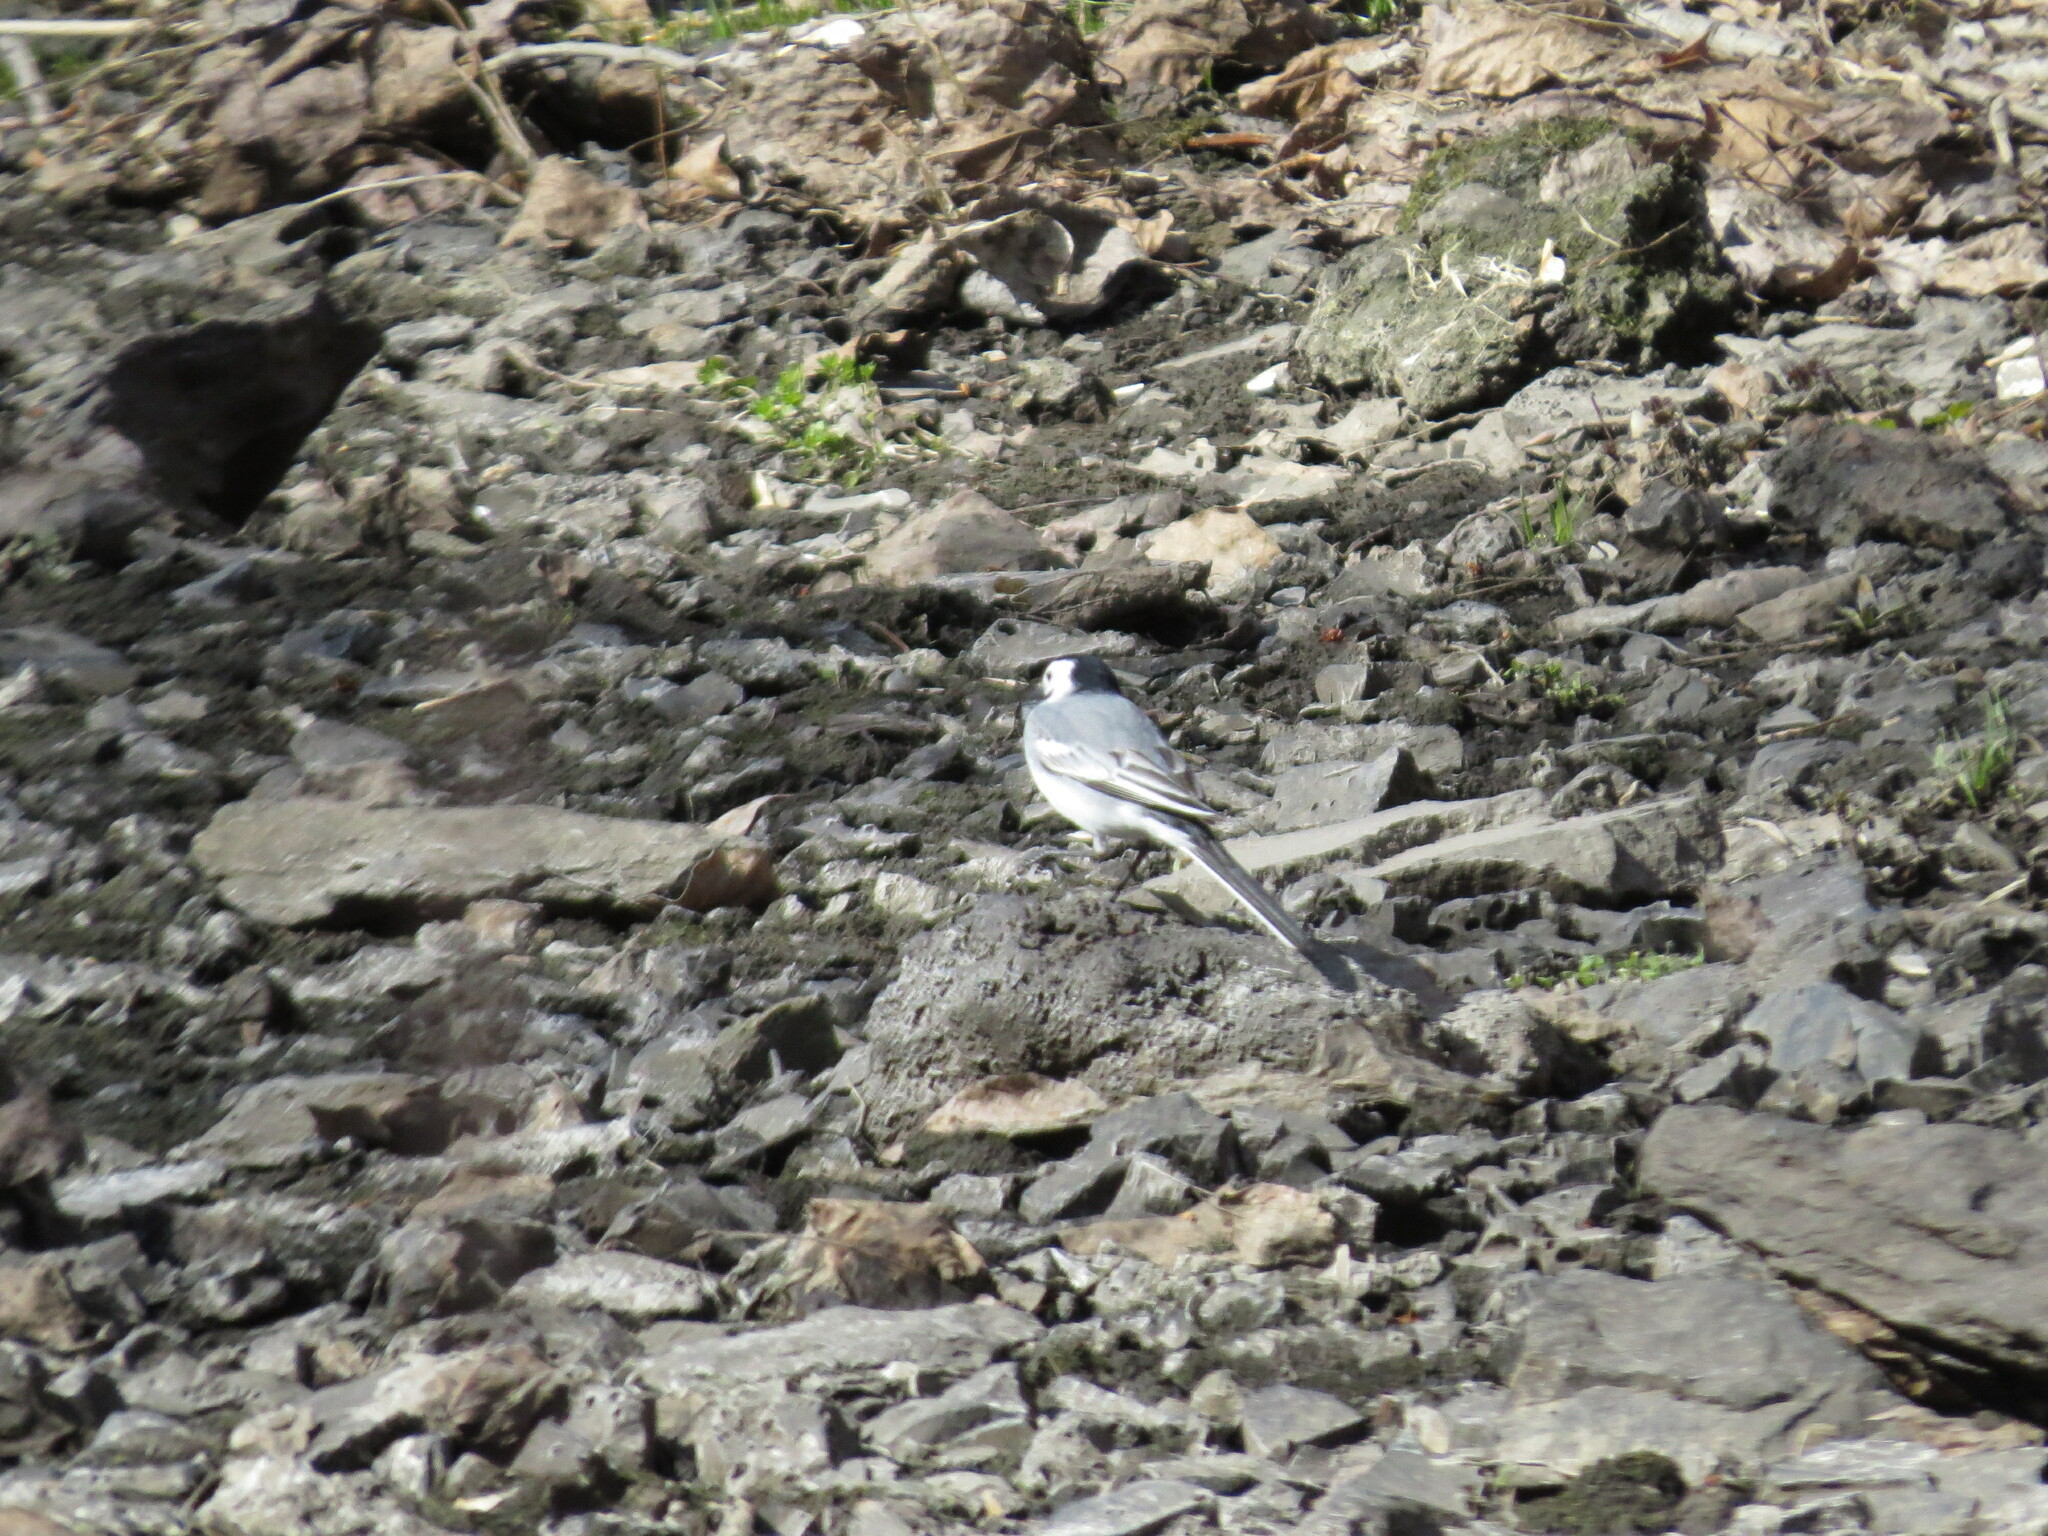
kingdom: Animalia
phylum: Chordata
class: Aves
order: Passeriformes
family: Motacillidae
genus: Motacilla
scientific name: Motacilla alba
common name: White wagtail
